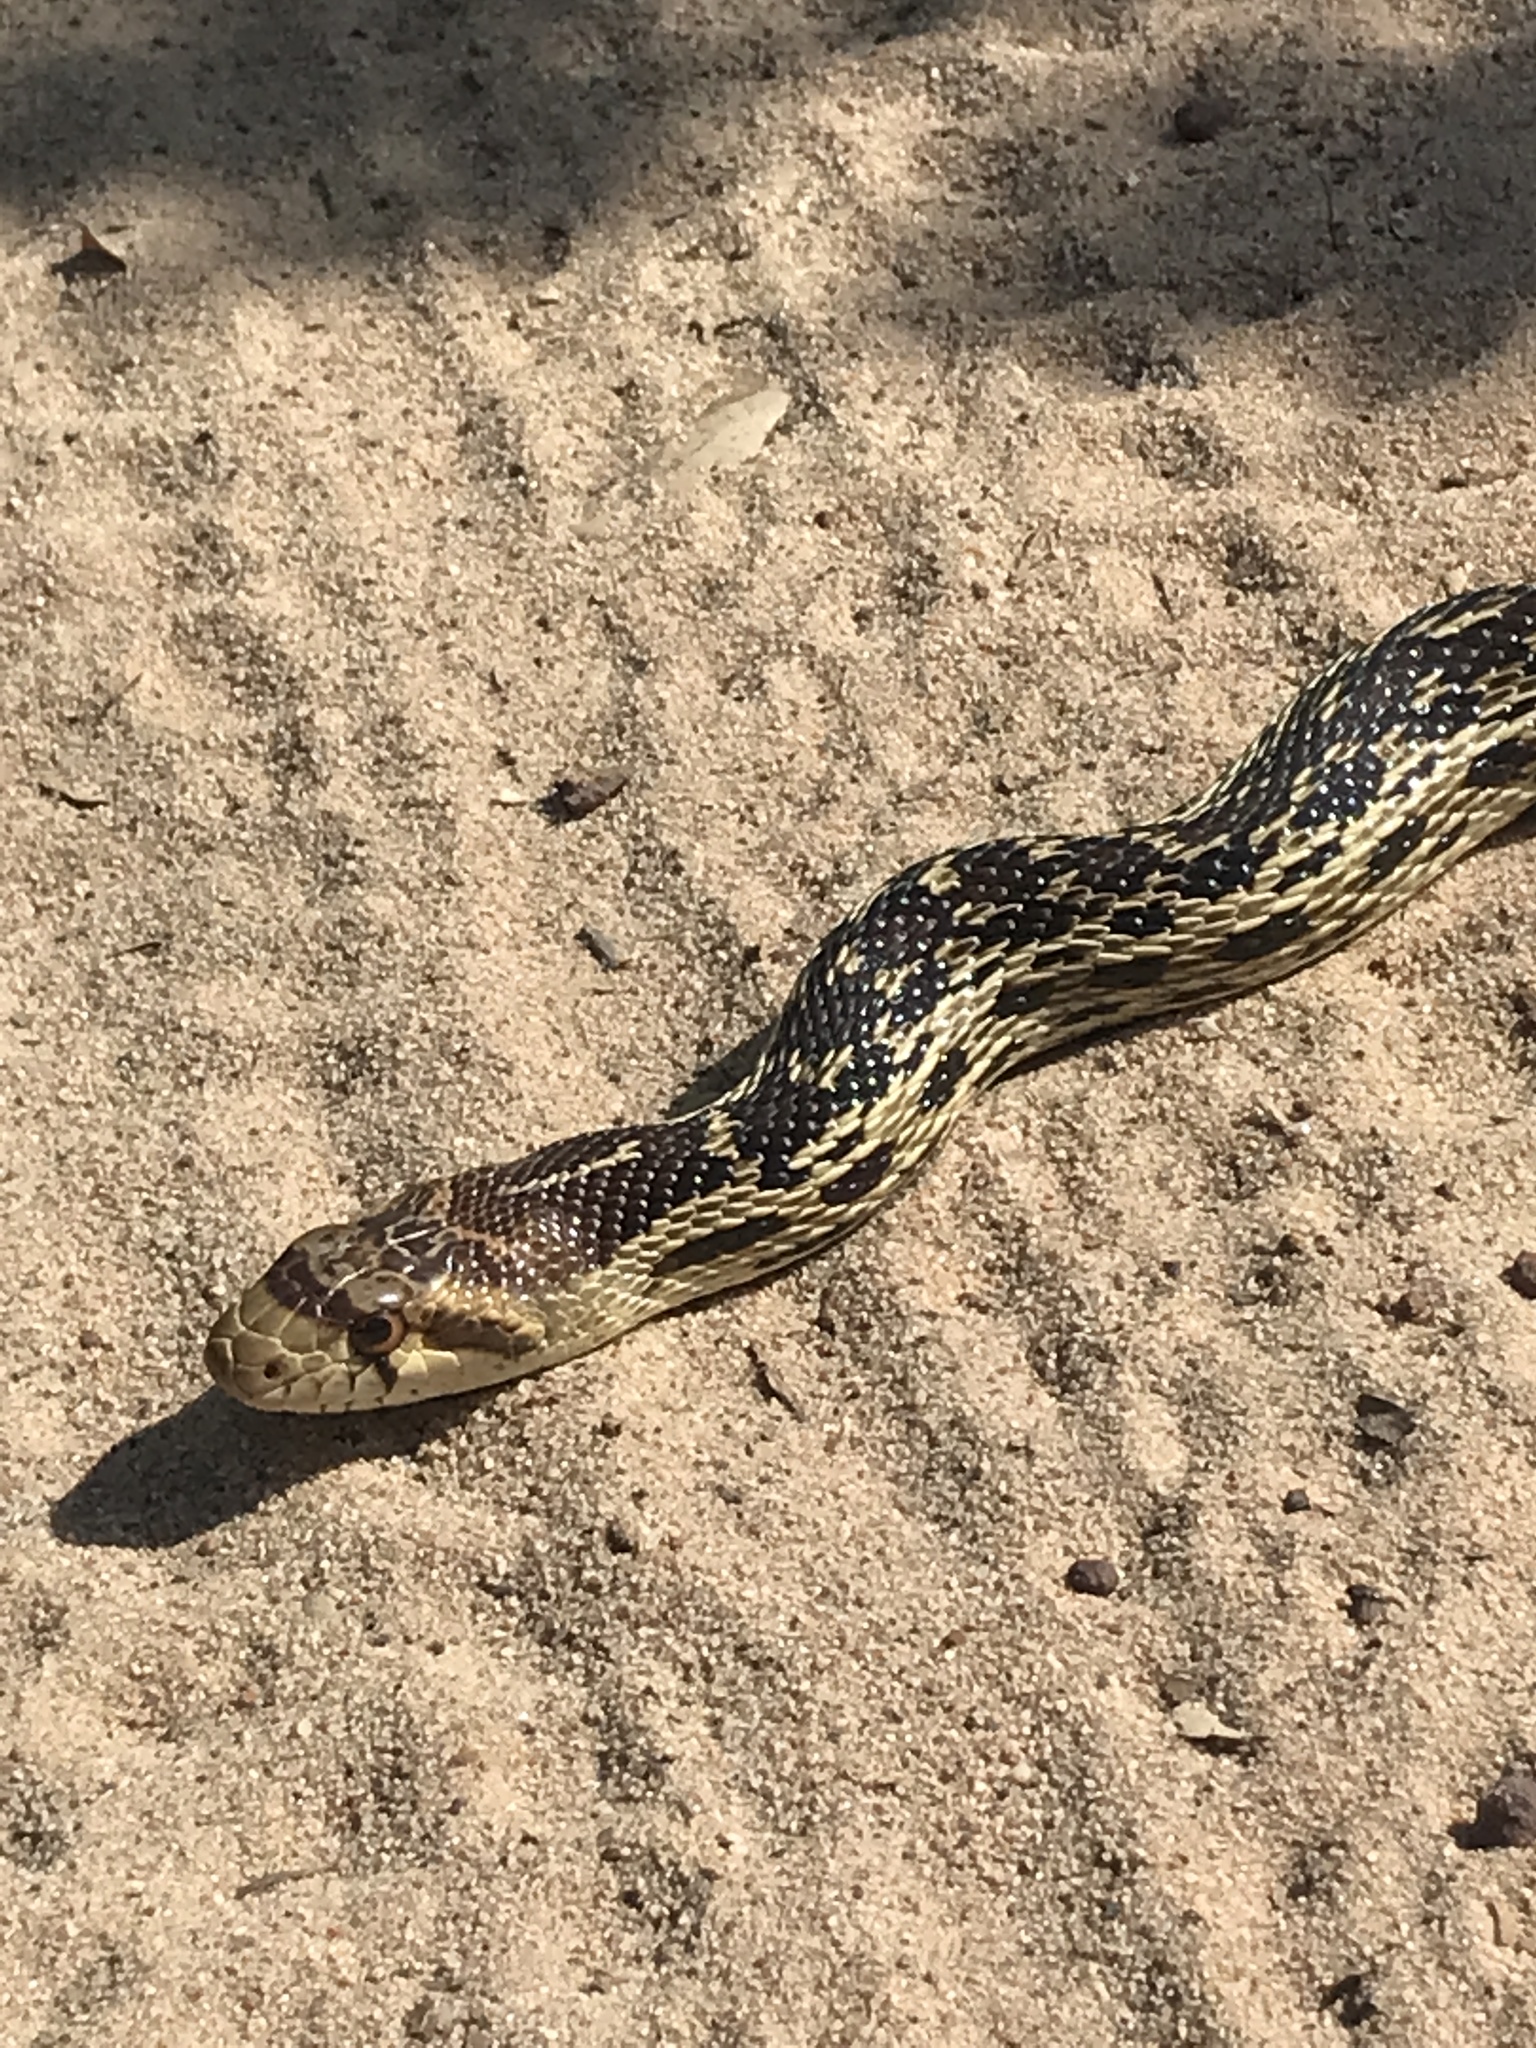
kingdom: Animalia
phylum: Chordata
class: Squamata
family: Colubridae
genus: Pituophis
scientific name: Pituophis catenifer
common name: Gopher snake
